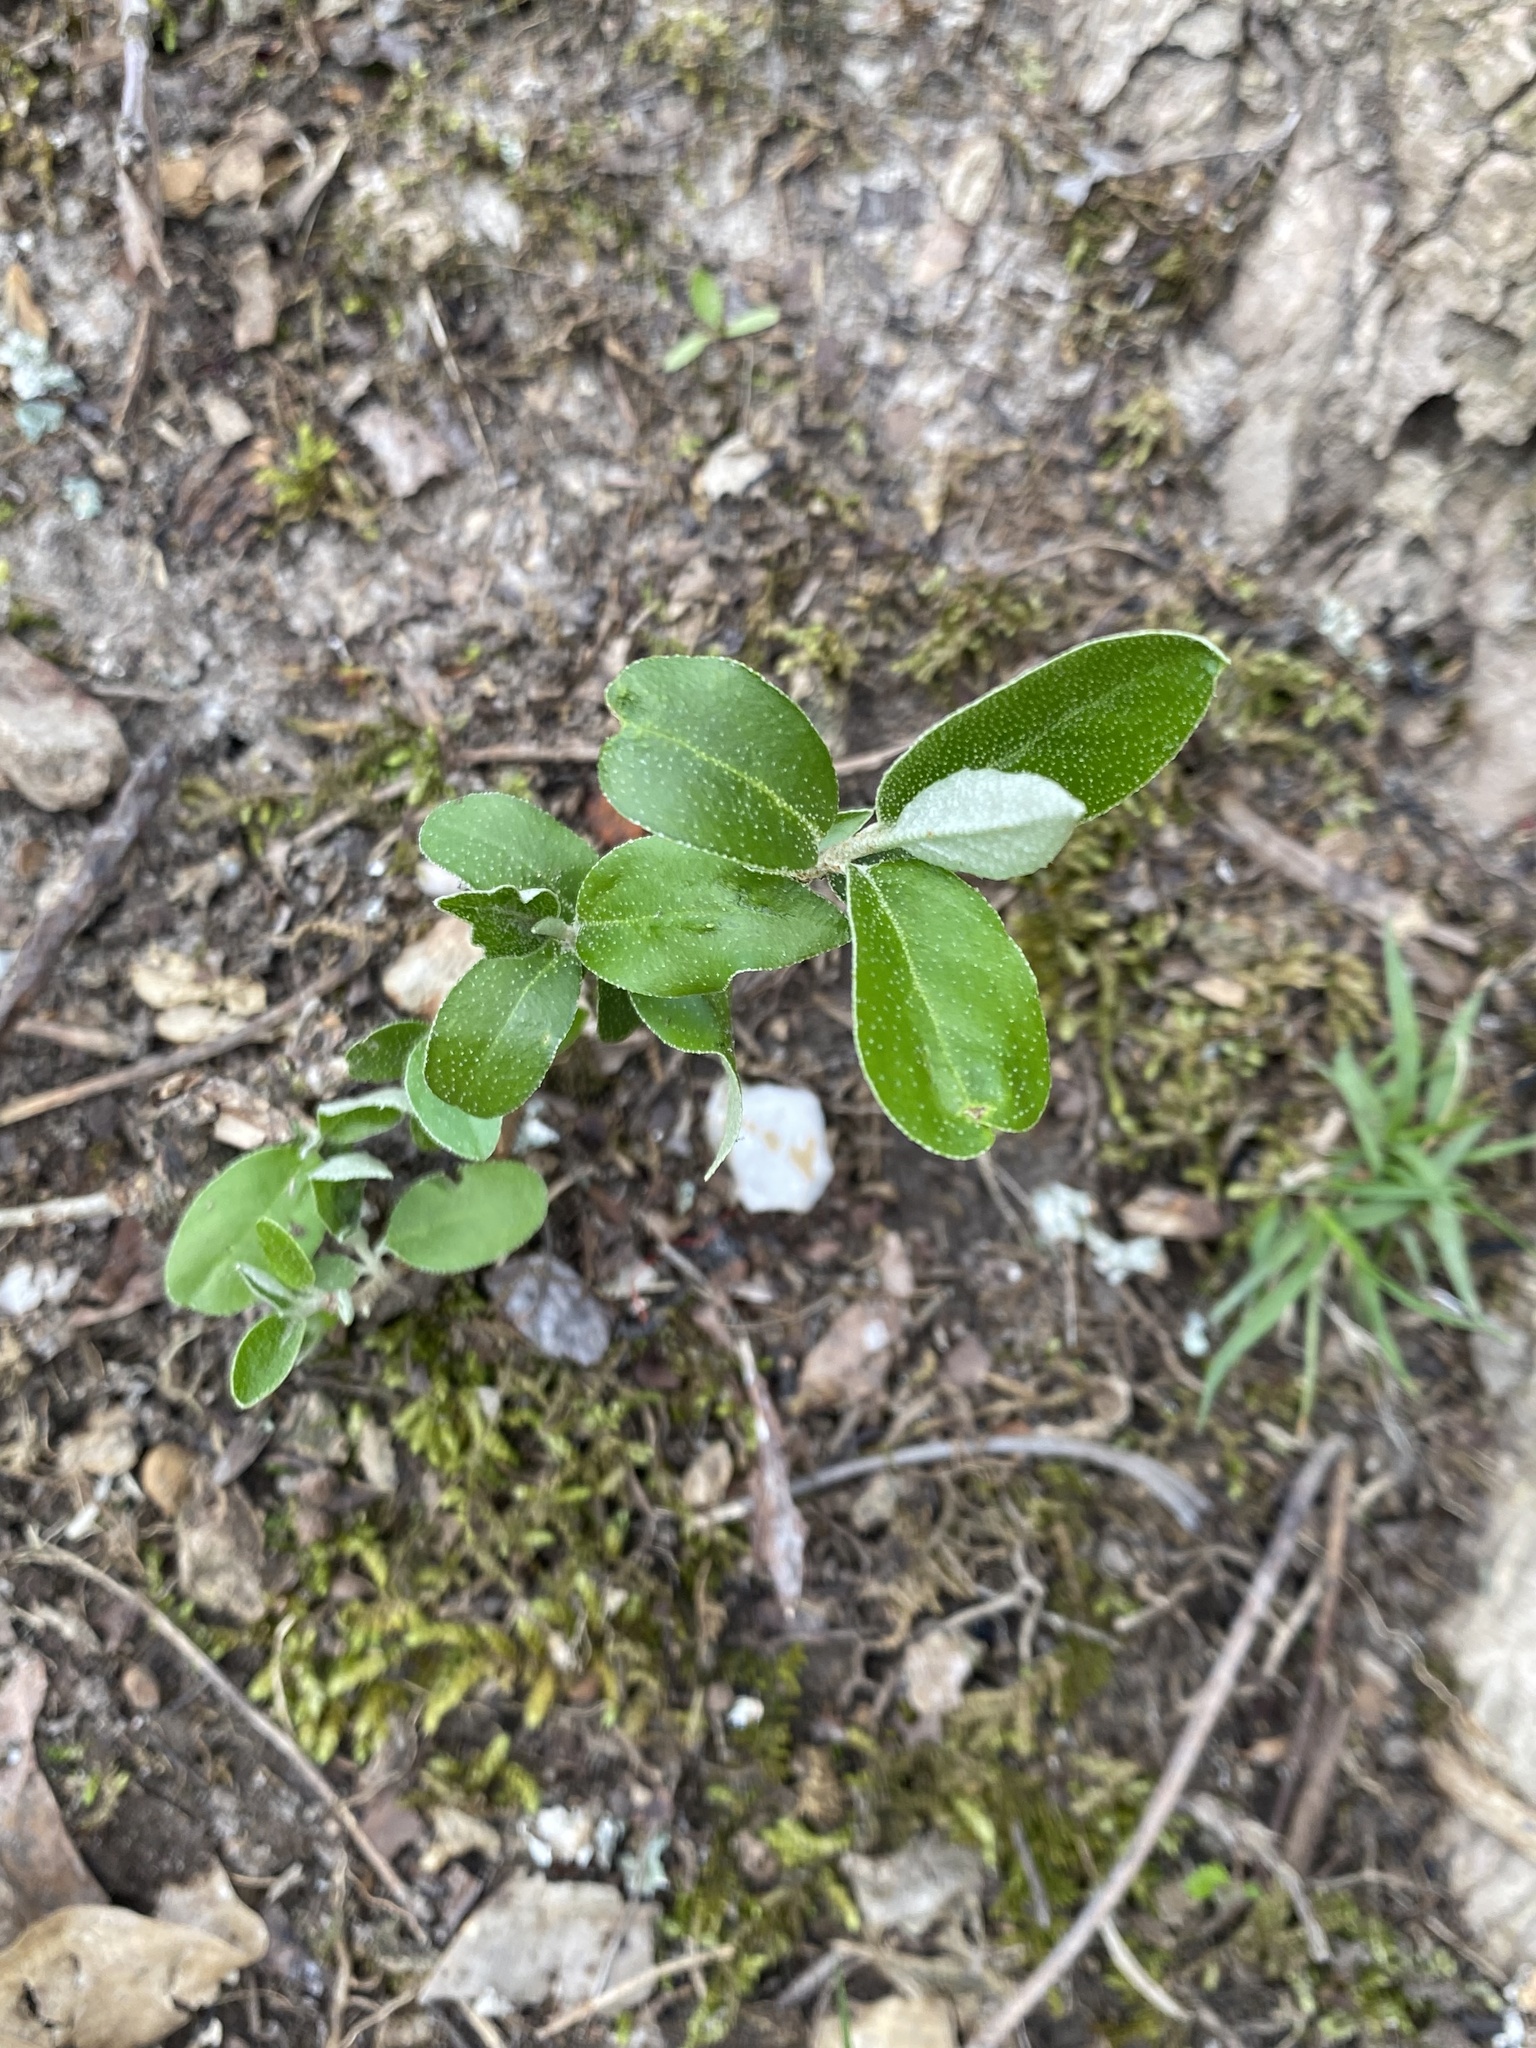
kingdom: Plantae
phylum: Tracheophyta
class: Magnoliopsida
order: Rosales
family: Elaeagnaceae
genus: Elaeagnus
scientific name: Elaeagnus umbellata
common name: Autumn olive
